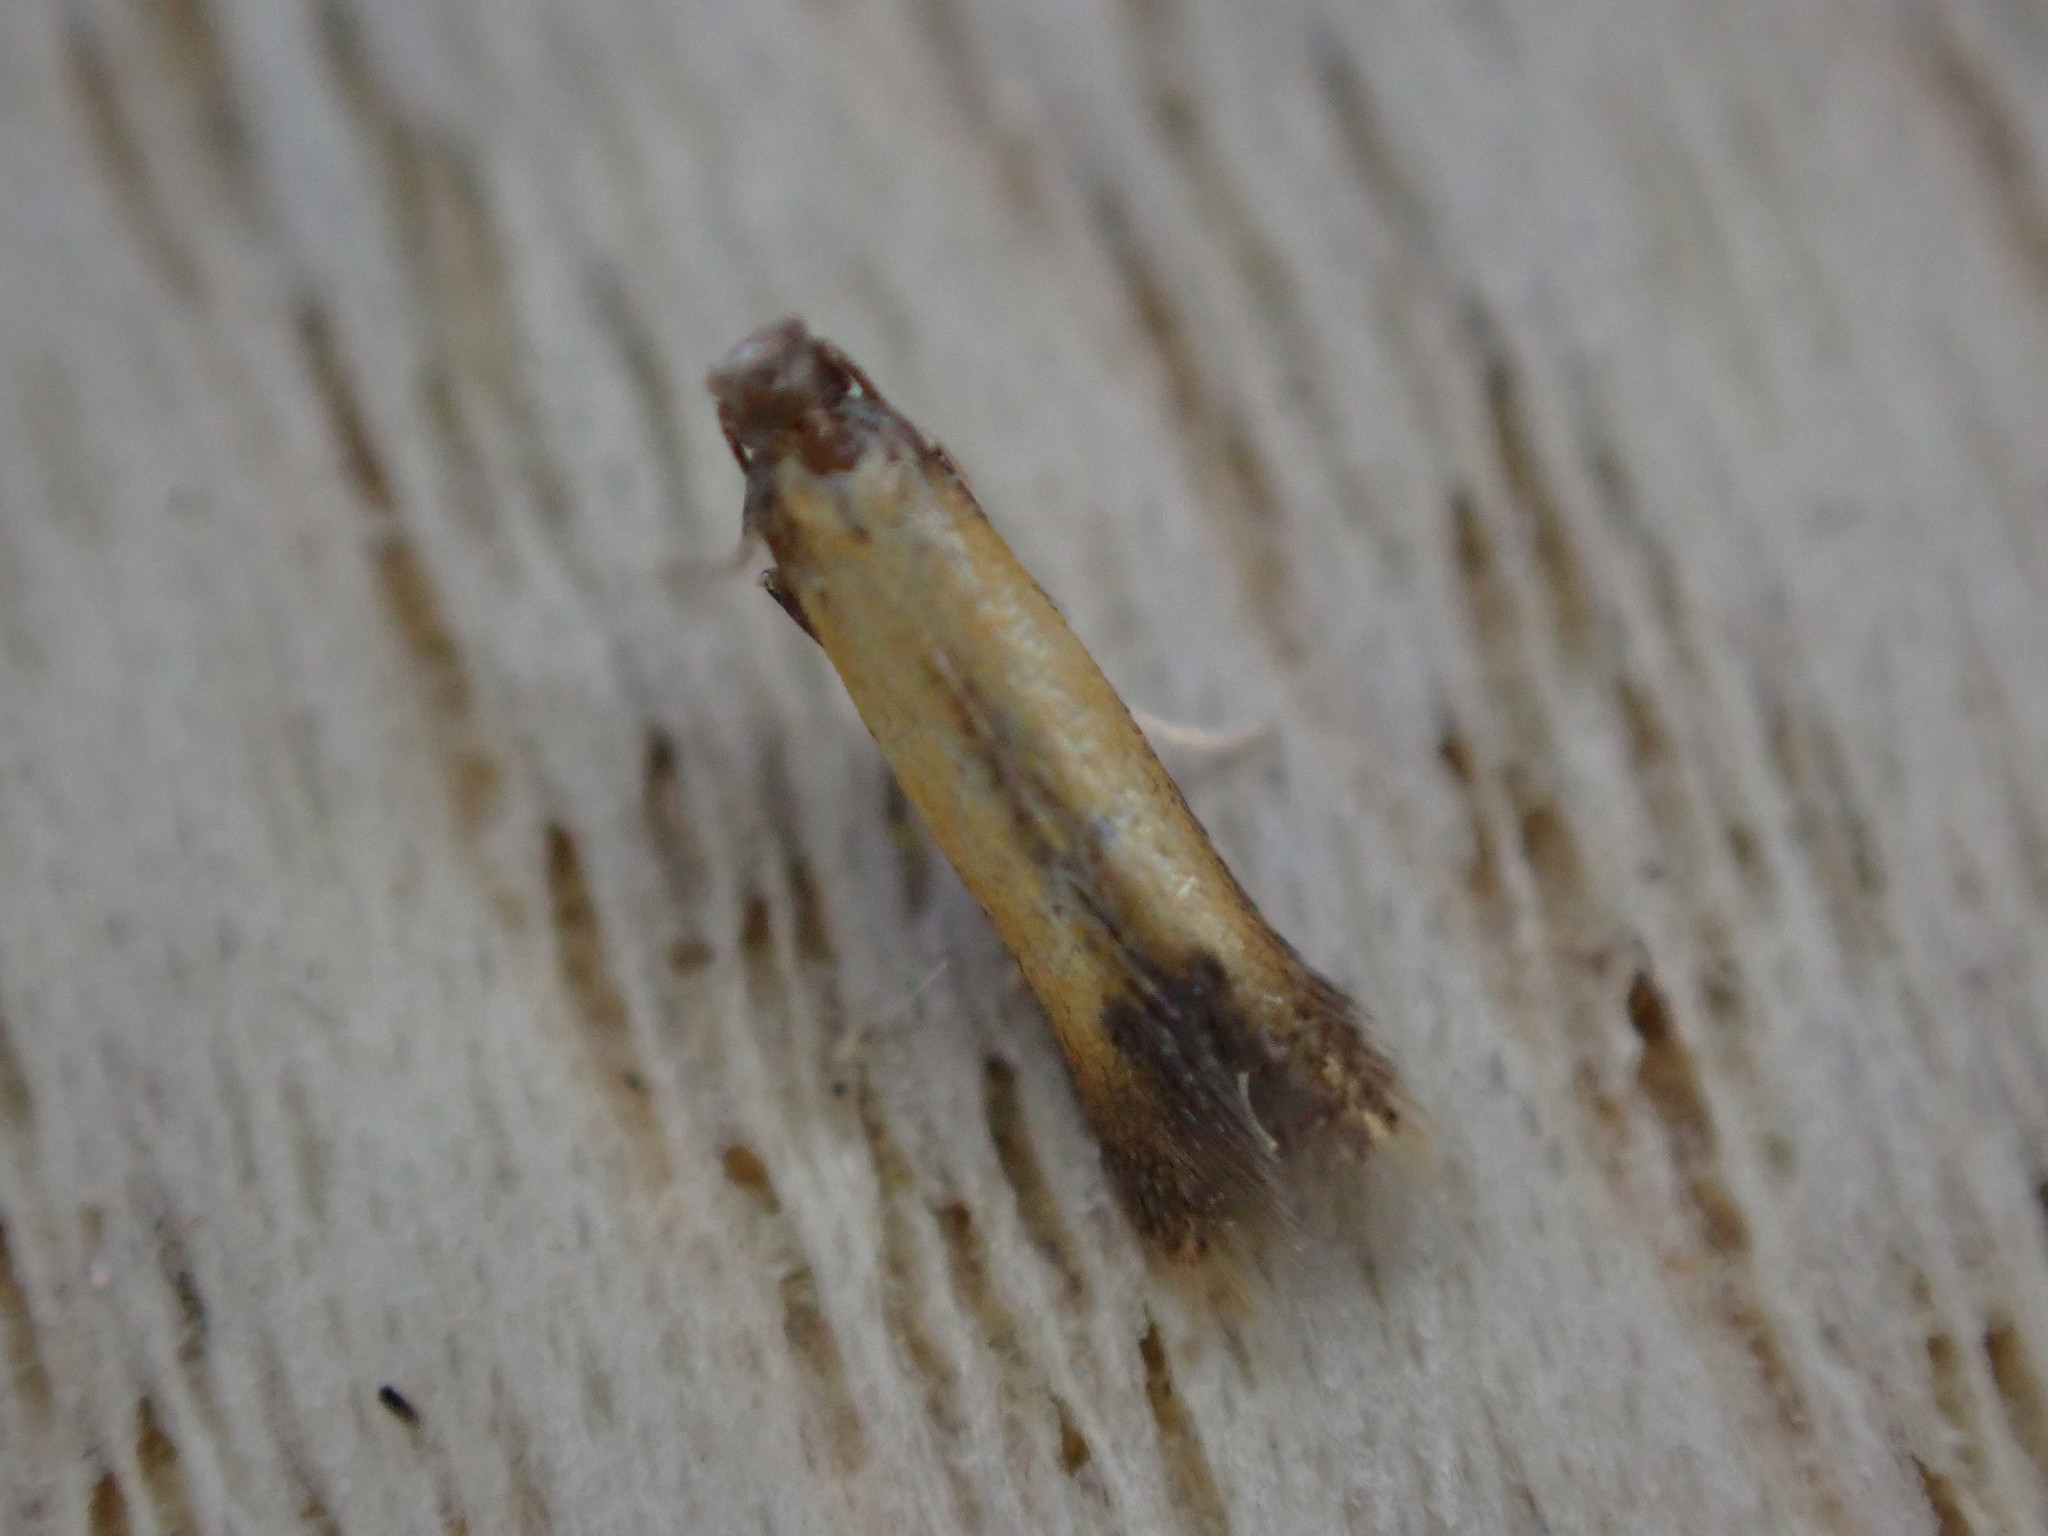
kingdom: Animalia
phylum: Arthropoda
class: Insecta
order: Lepidoptera
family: Tischeriidae
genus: Coptotriche
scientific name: Coptotriche marginea
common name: Bordered carl
